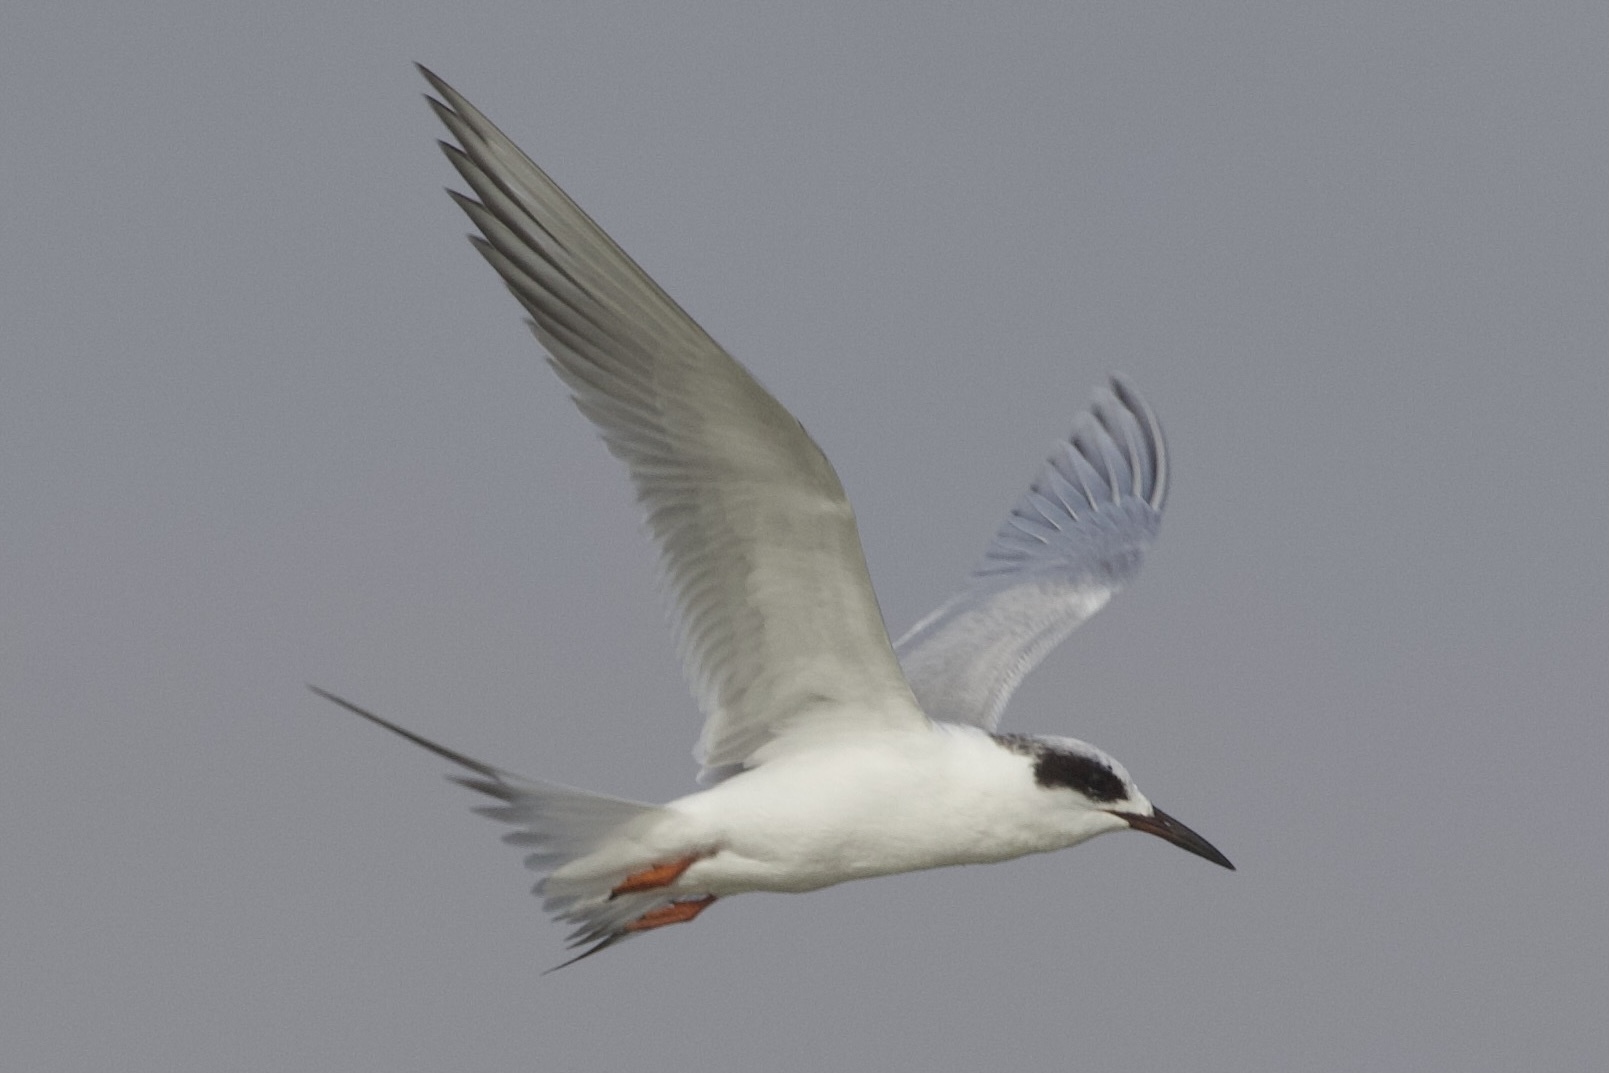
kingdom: Animalia
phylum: Chordata
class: Aves
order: Charadriiformes
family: Laridae
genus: Sterna
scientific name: Sterna forsteri
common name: Forster's tern
